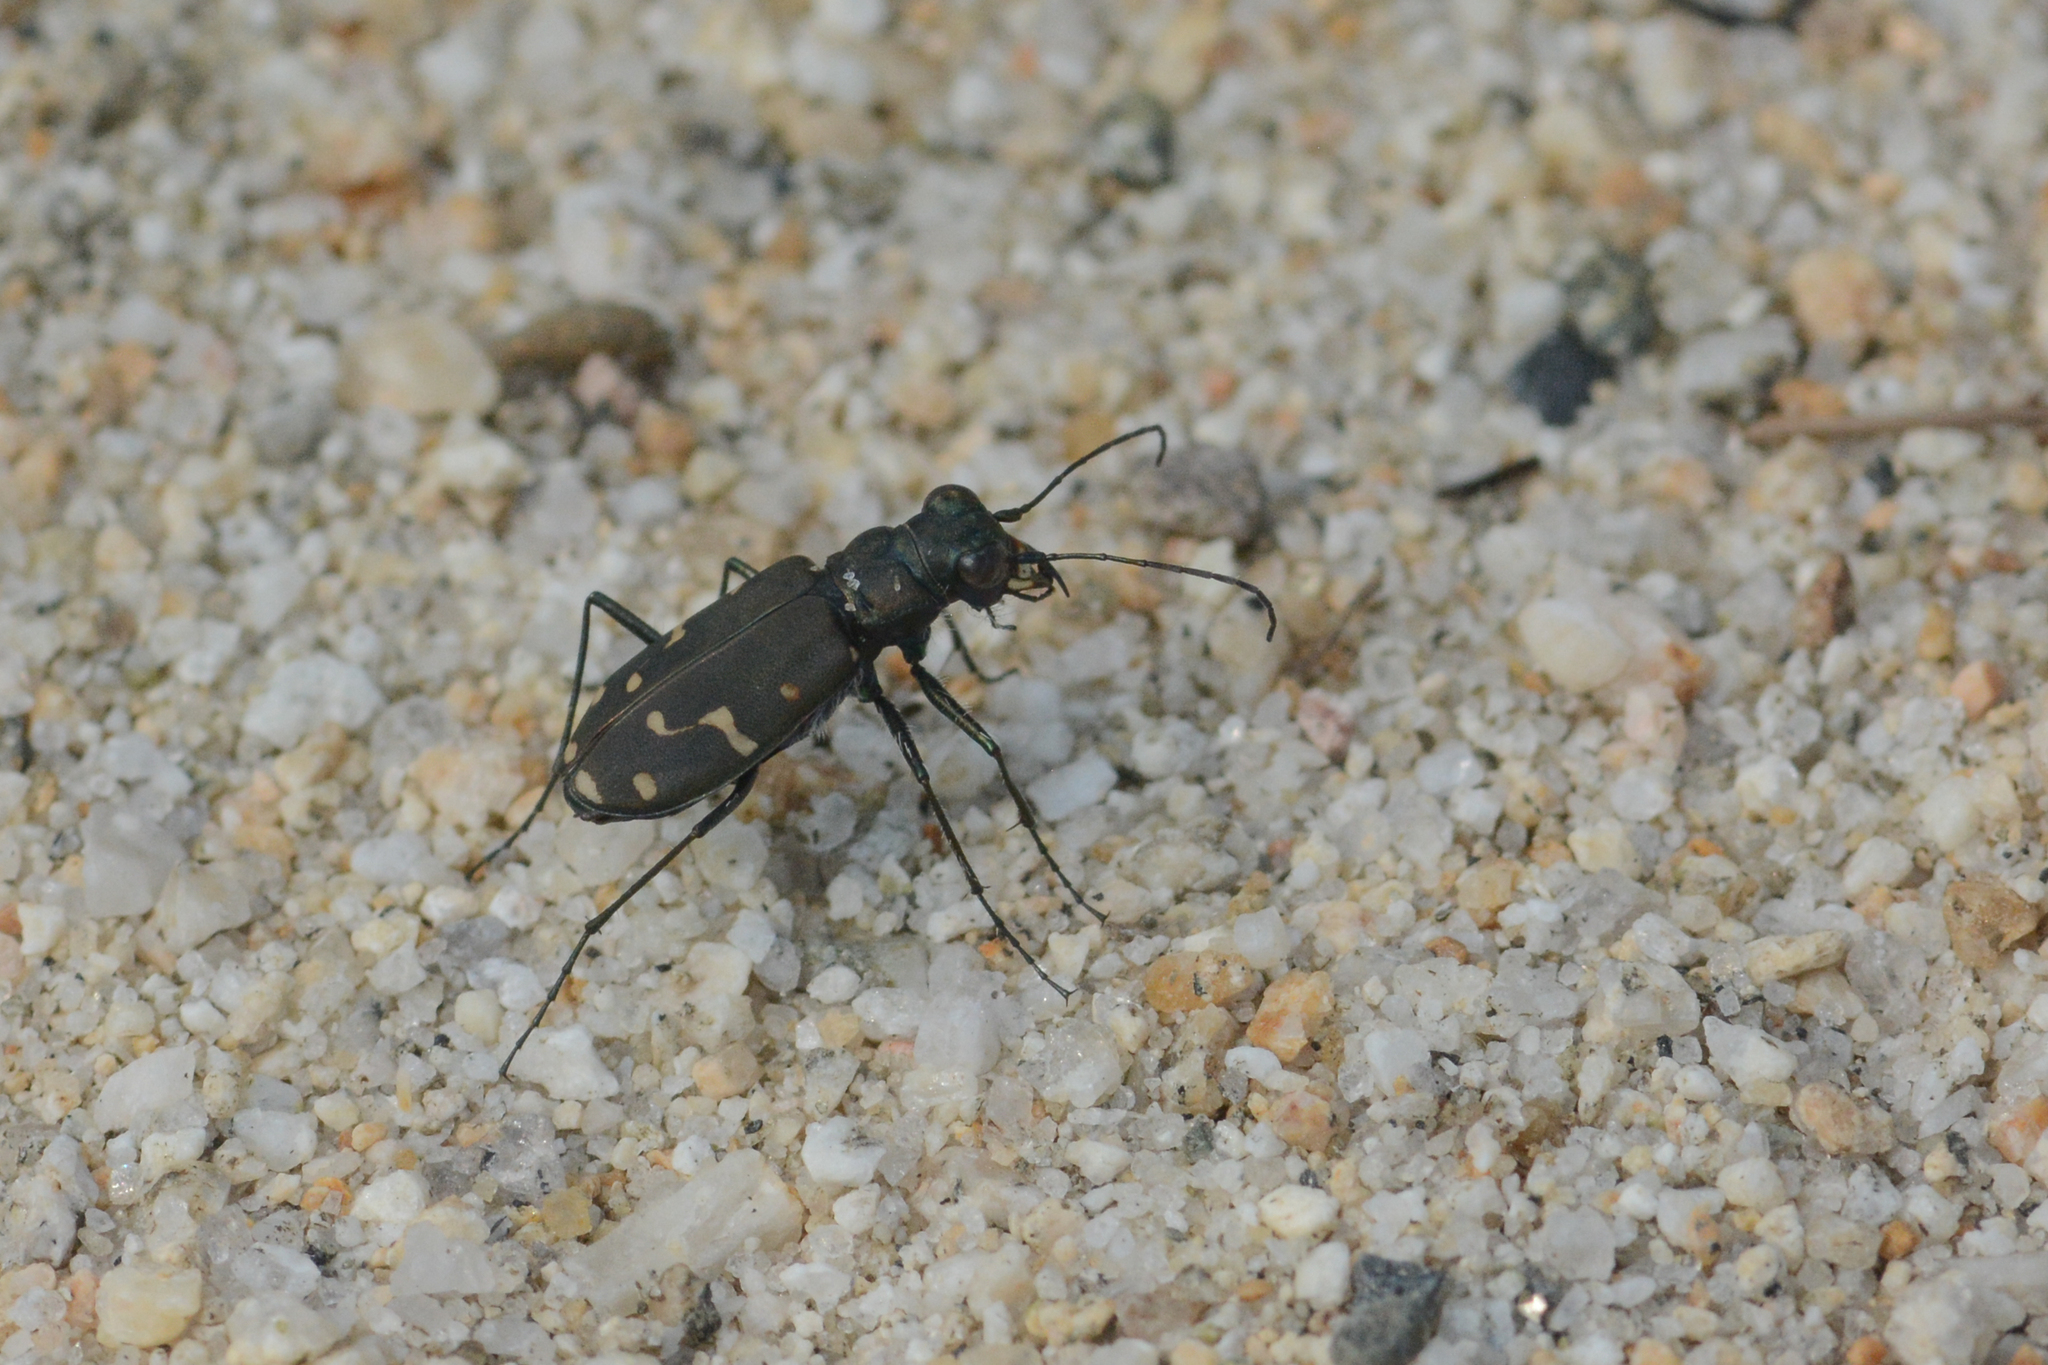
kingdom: Animalia
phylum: Arthropoda
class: Insecta
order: Coleoptera
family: Carabidae
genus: Cicindela
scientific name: Cicindela oregona
